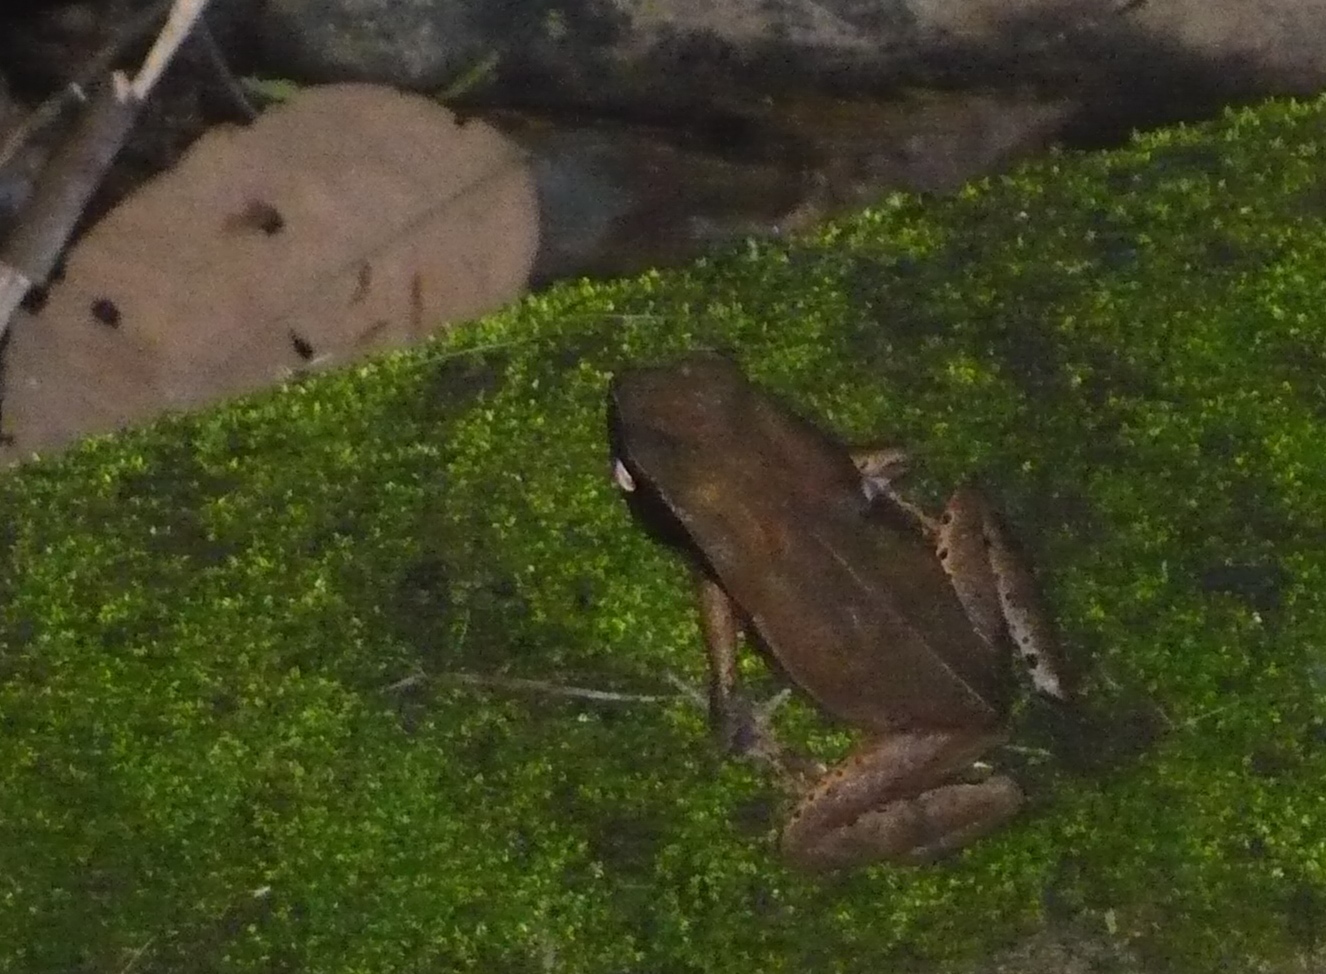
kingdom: Animalia
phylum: Chordata
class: Amphibia
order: Anura
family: Bufonidae
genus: Rhaebo
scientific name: Rhaebo haematiticus
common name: Truando toad
